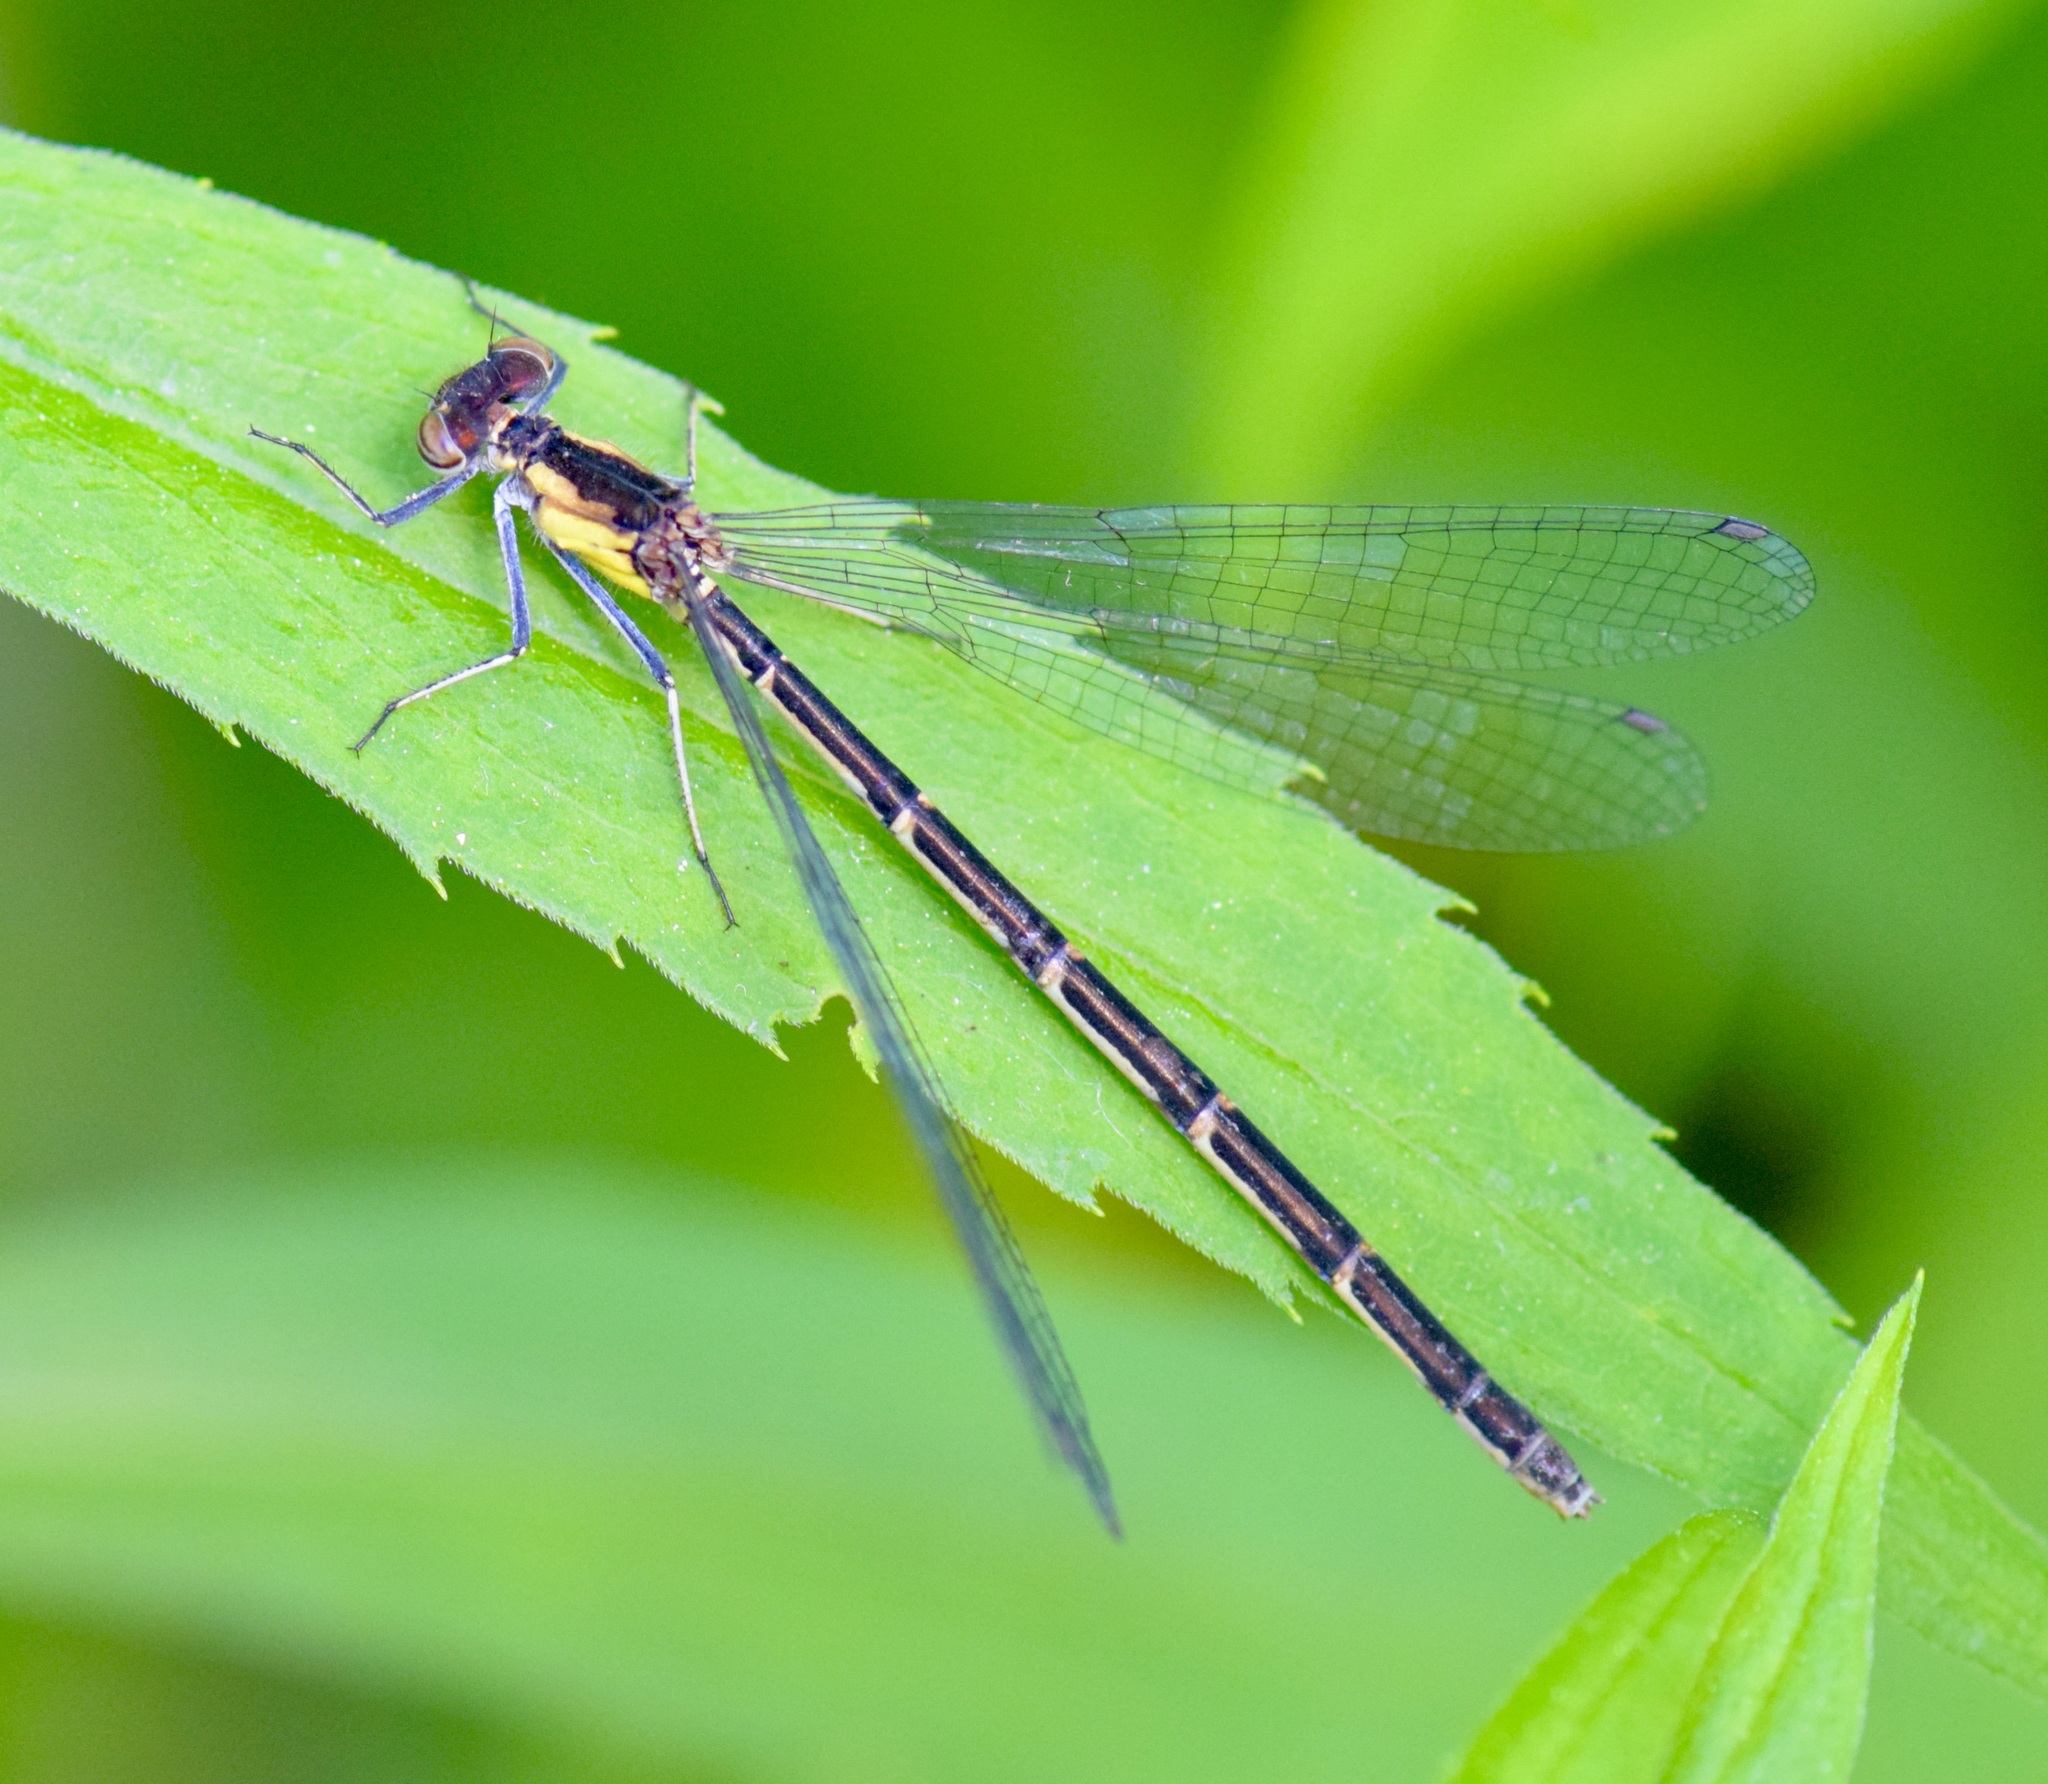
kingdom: Animalia
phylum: Arthropoda
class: Insecta
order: Odonata
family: Coenagrionidae
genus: Chromagrion
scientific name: Chromagrion conditum
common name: Aurora damsel
